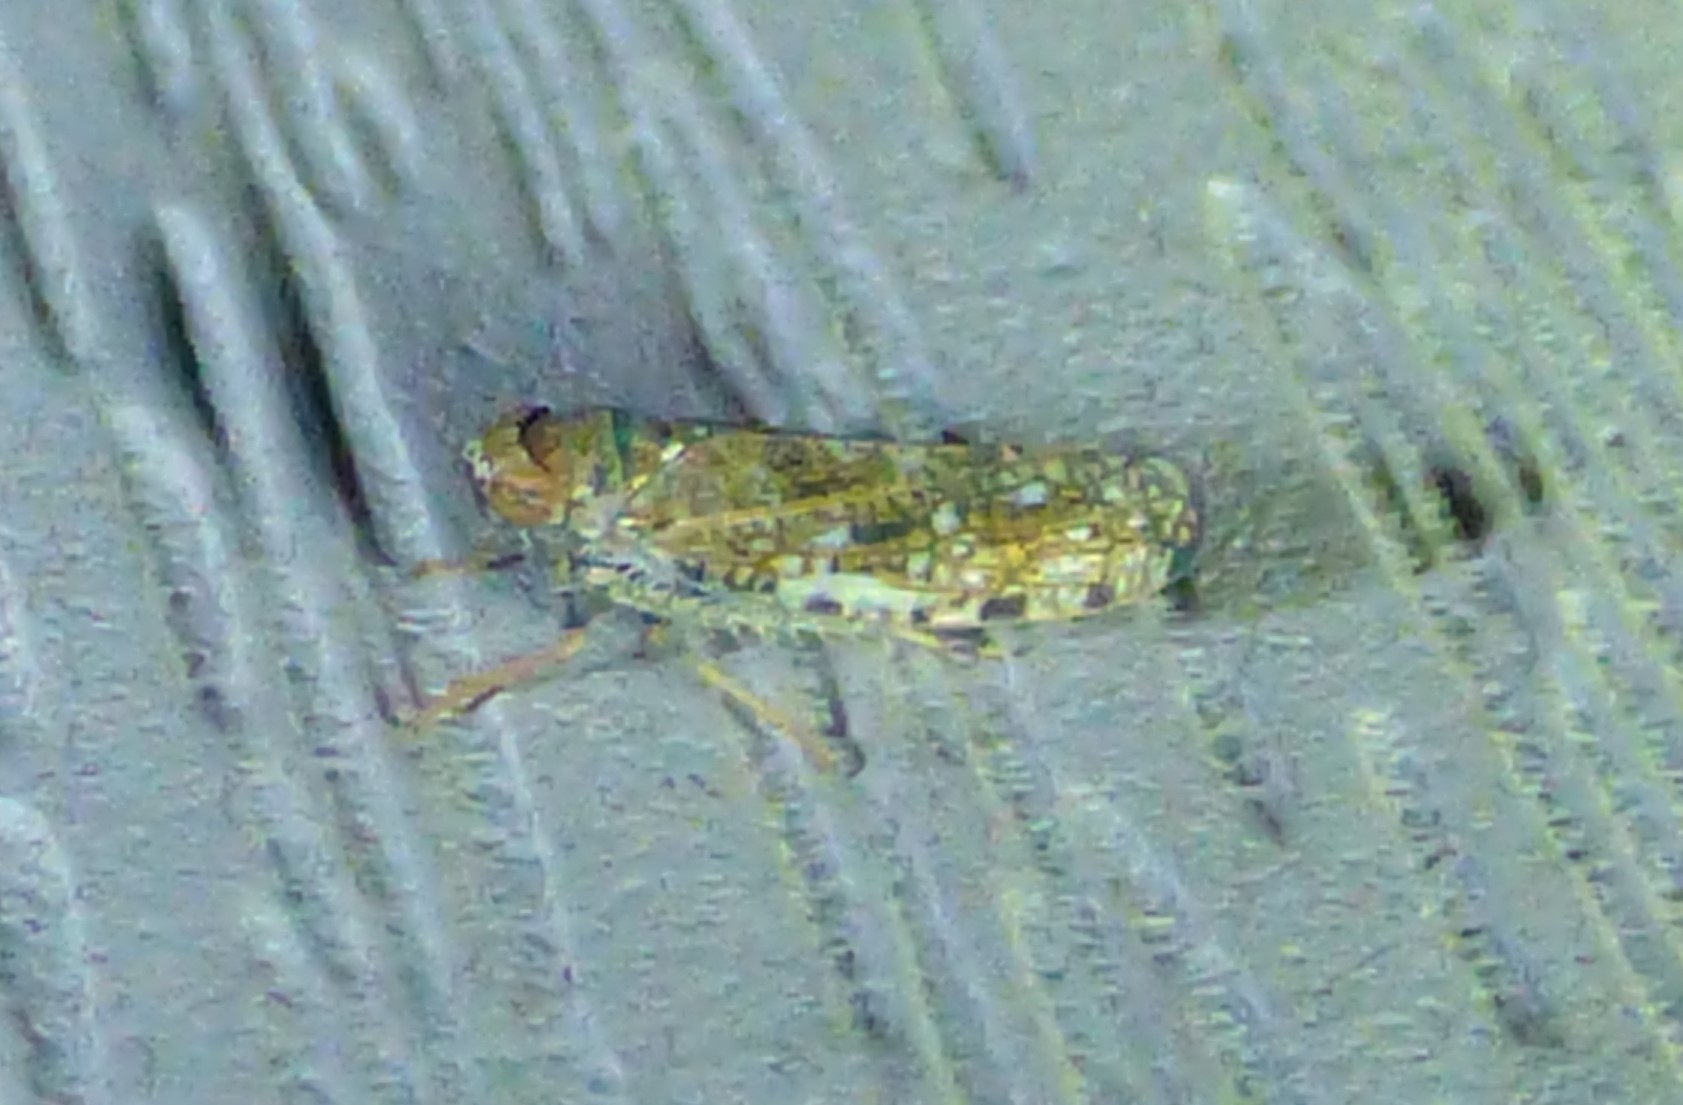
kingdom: Animalia
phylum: Arthropoda
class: Insecta
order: Hemiptera
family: Cicadellidae
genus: Orientus
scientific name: Orientus ishidae
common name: Japanese leafhopper
